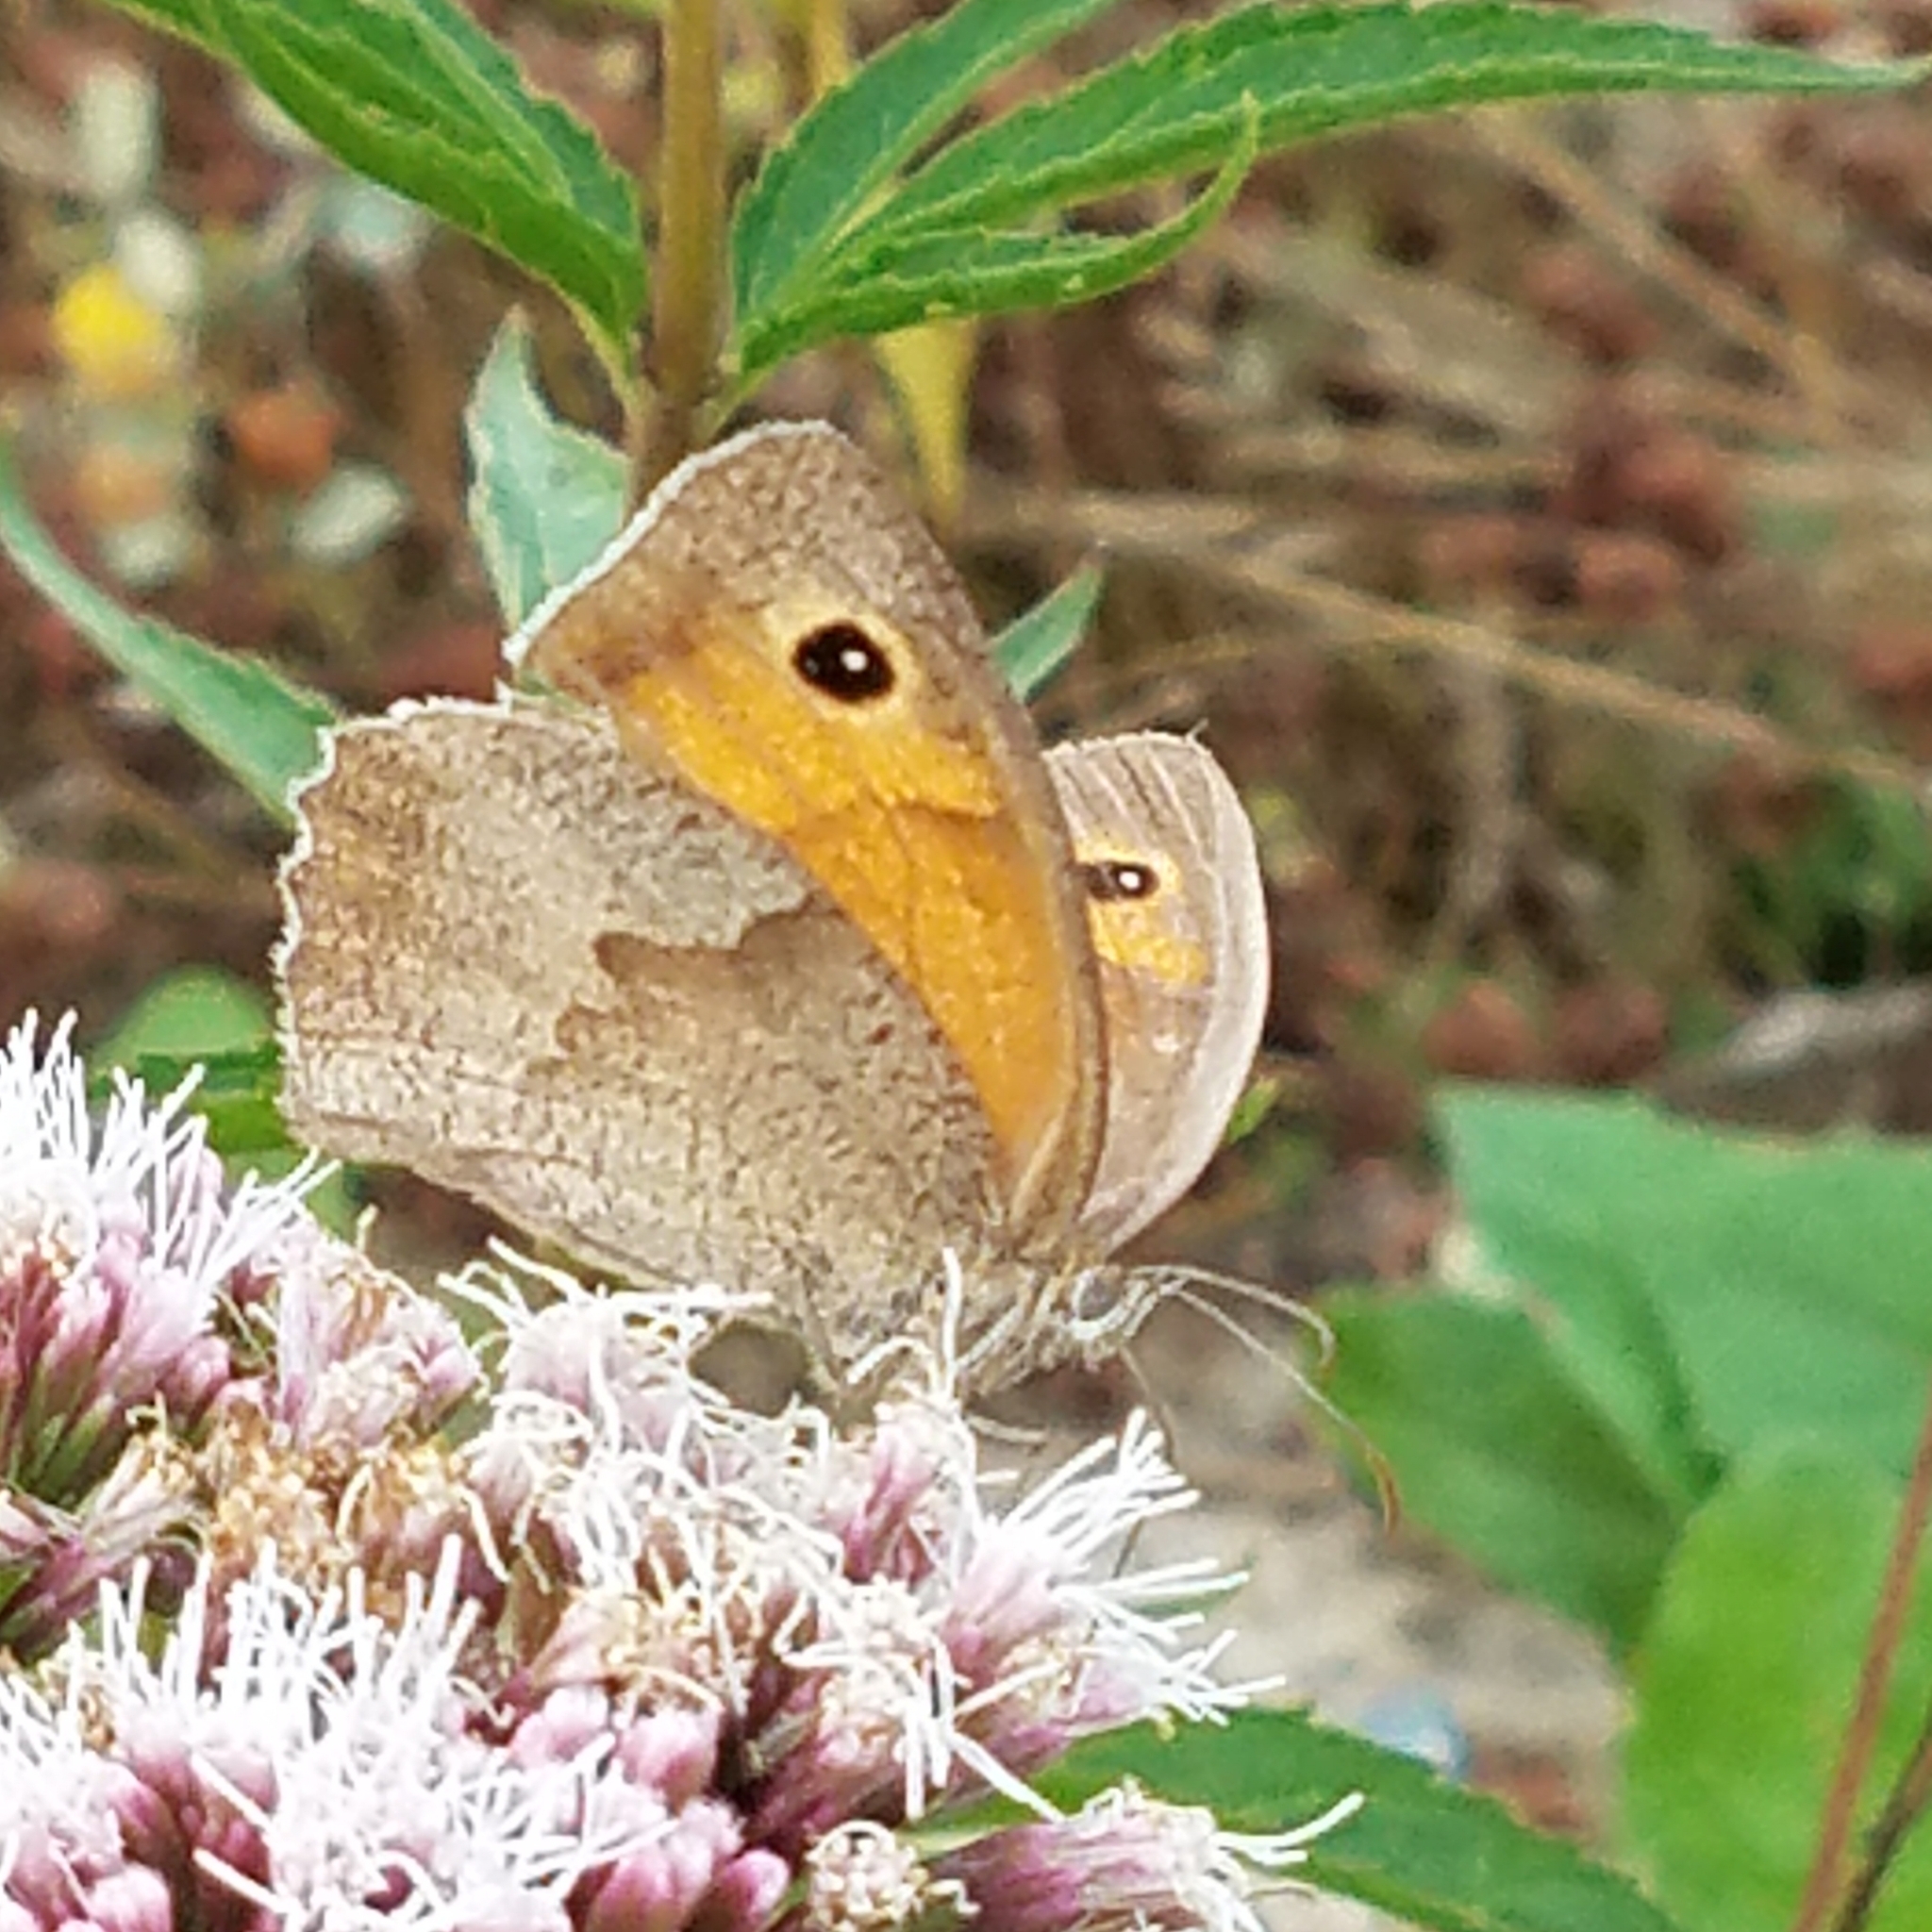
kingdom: Animalia
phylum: Arthropoda
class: Insecta
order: Lepidoptera
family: Nymphalidae
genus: Maniola
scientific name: Maniola jurtina
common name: Meadow brown
